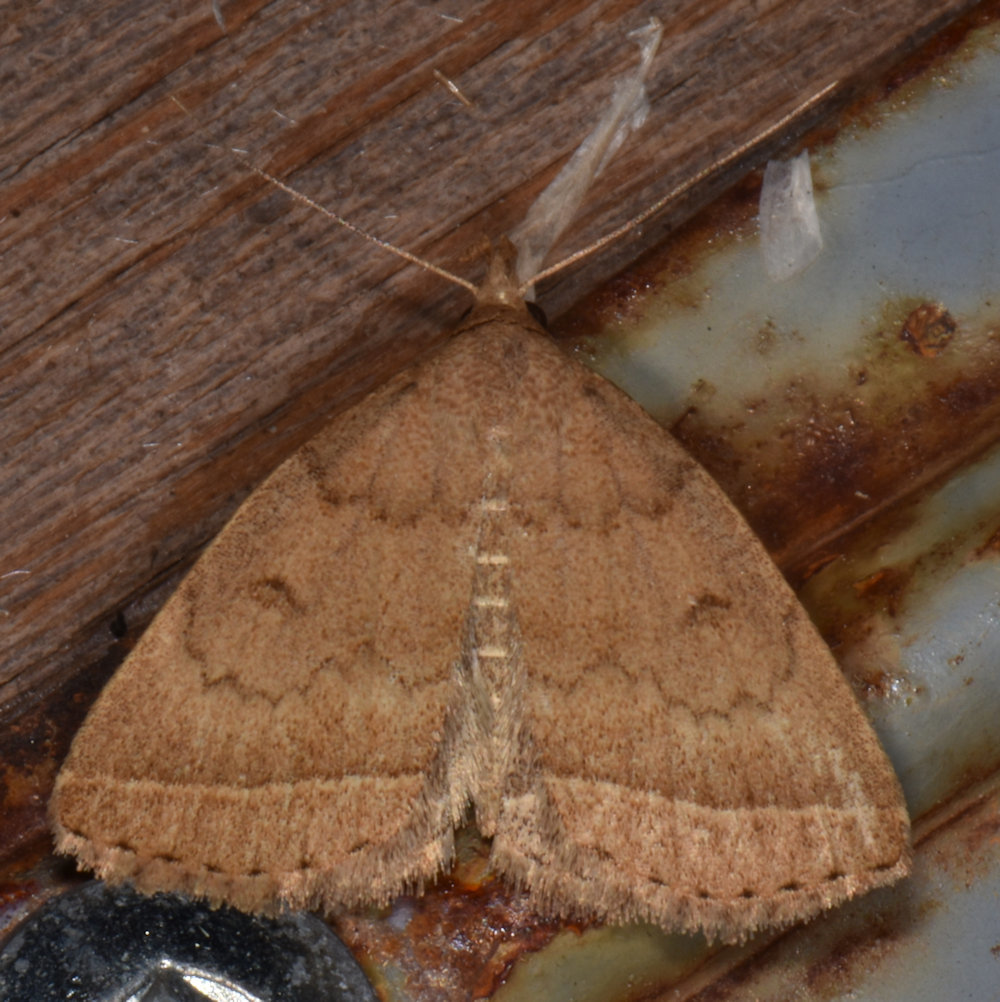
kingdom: Animalia
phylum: Arthropoda
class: Insecta
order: Lepidoptera
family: Erebidae
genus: Zanclognatha
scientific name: Zanclognatha jacchusalis
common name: Yellowish zanclognatha
